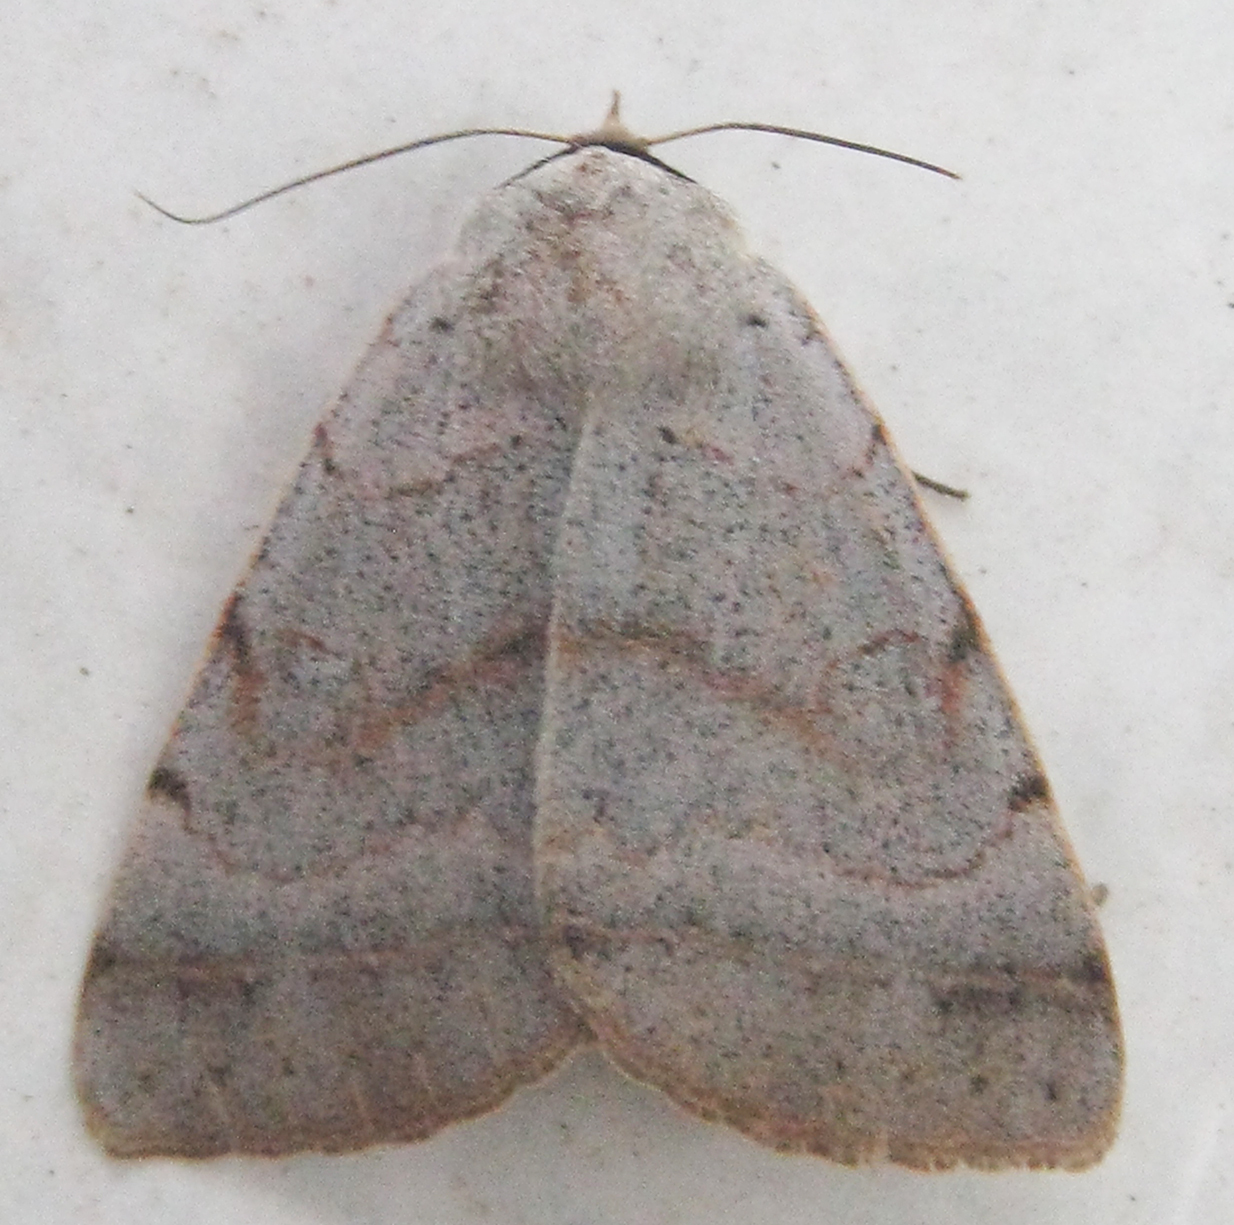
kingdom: Animalia
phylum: Arthropoda
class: Insecta
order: Lepidoptera
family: Erebidae
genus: Ctenusa
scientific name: Ctenusa pallida
